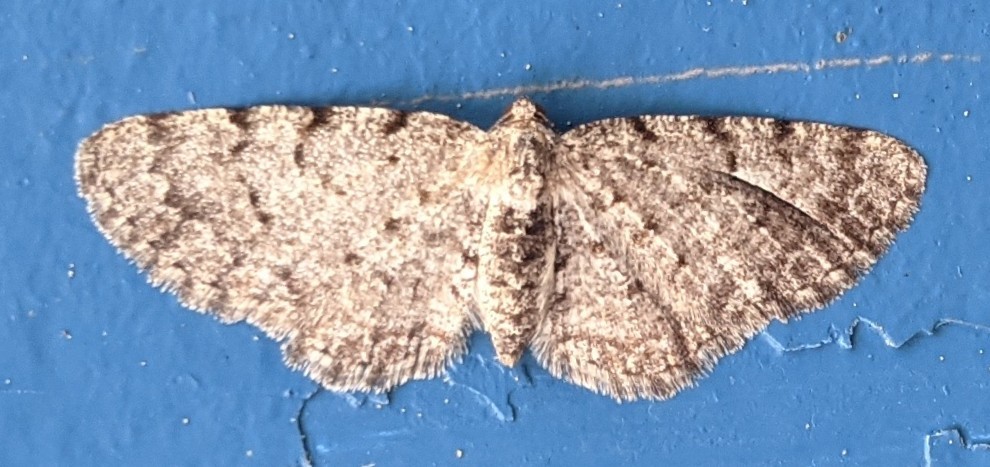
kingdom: Animalia
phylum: Arthropoda
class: Insecta
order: Lepidoptera
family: Geometridae
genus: Aethalura
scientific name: Aethalura intertexta
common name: Four-barred gray
